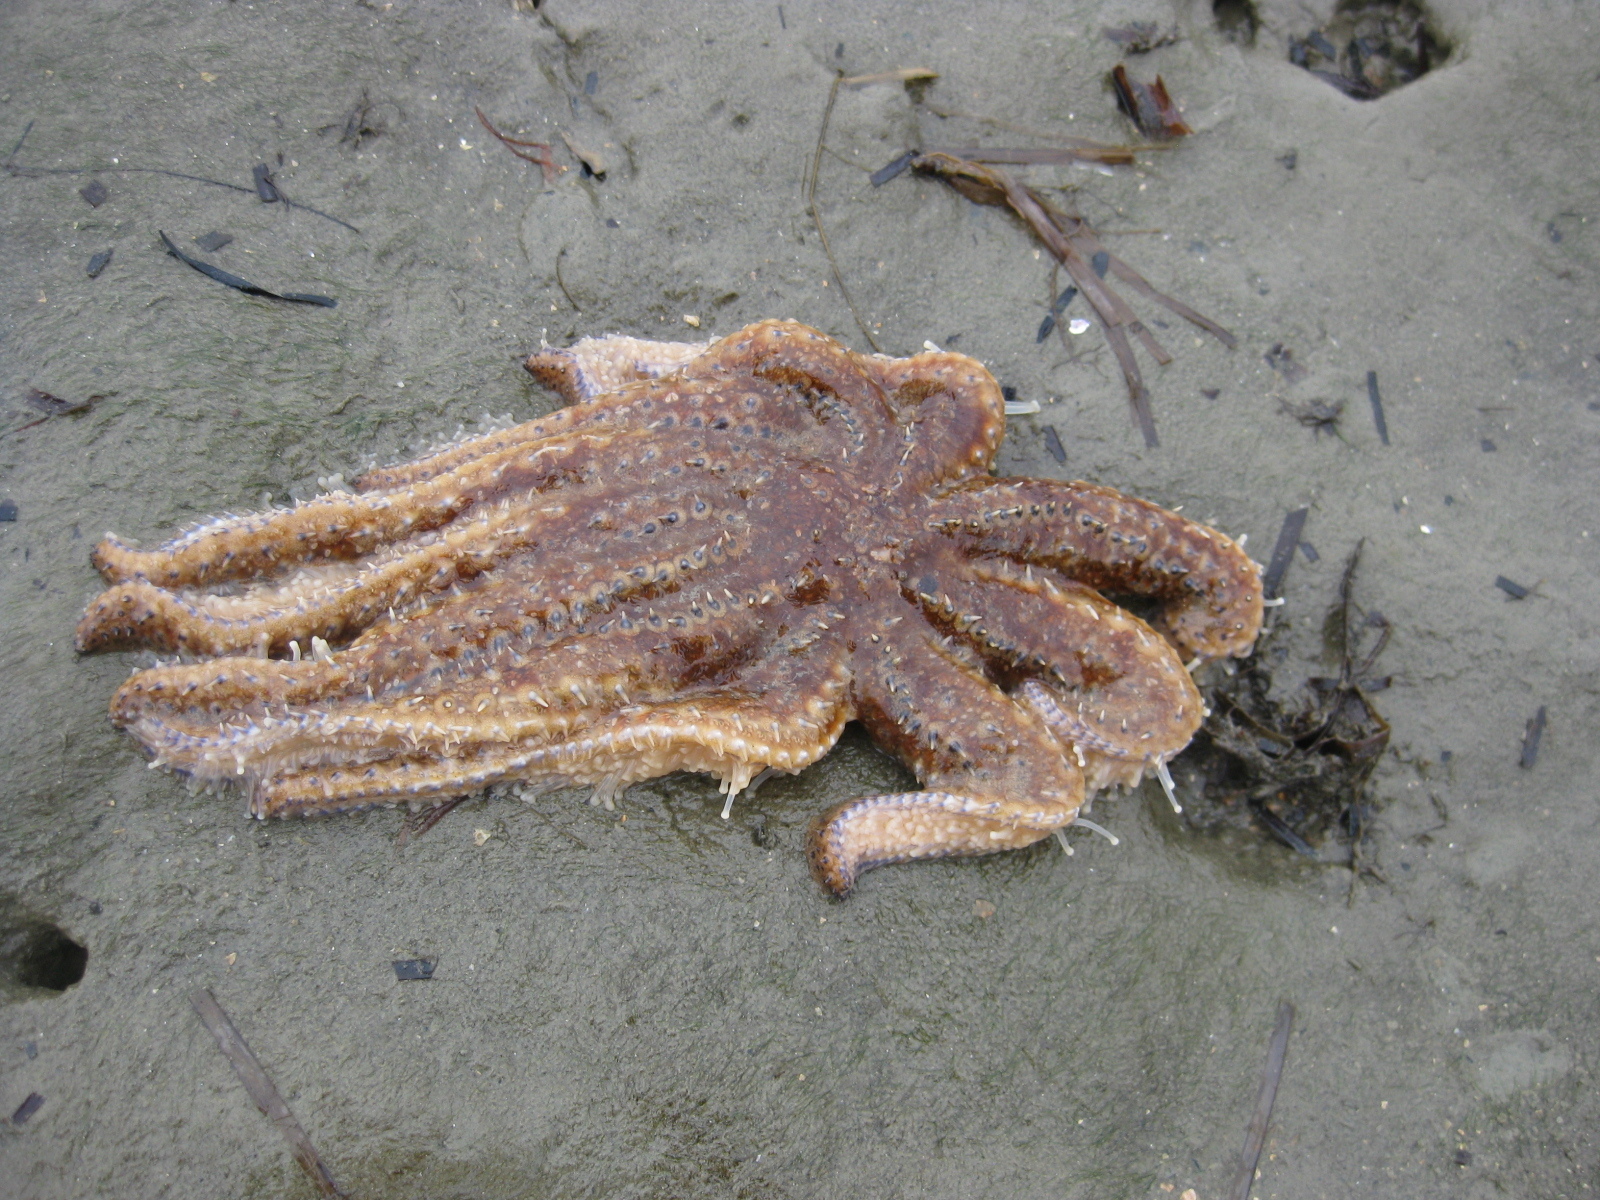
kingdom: Animalia
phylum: Echinodermata
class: Asteroidea
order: Forcipulatida
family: Asteriidae
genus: Coscinasterias
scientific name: Coscinasterias muricata
